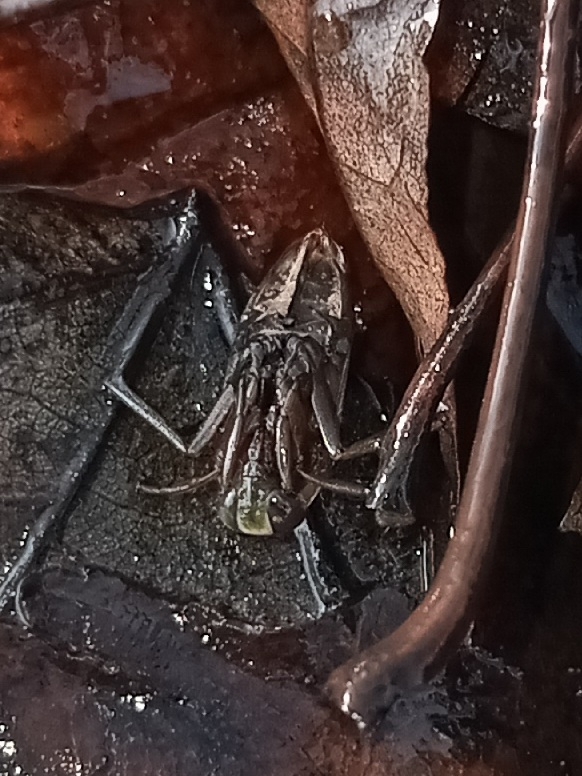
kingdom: Animalia
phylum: Arthropoda
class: Insecta
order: Hemiptera
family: Notonectidae
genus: Notonecta
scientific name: Notonecta irrorata
